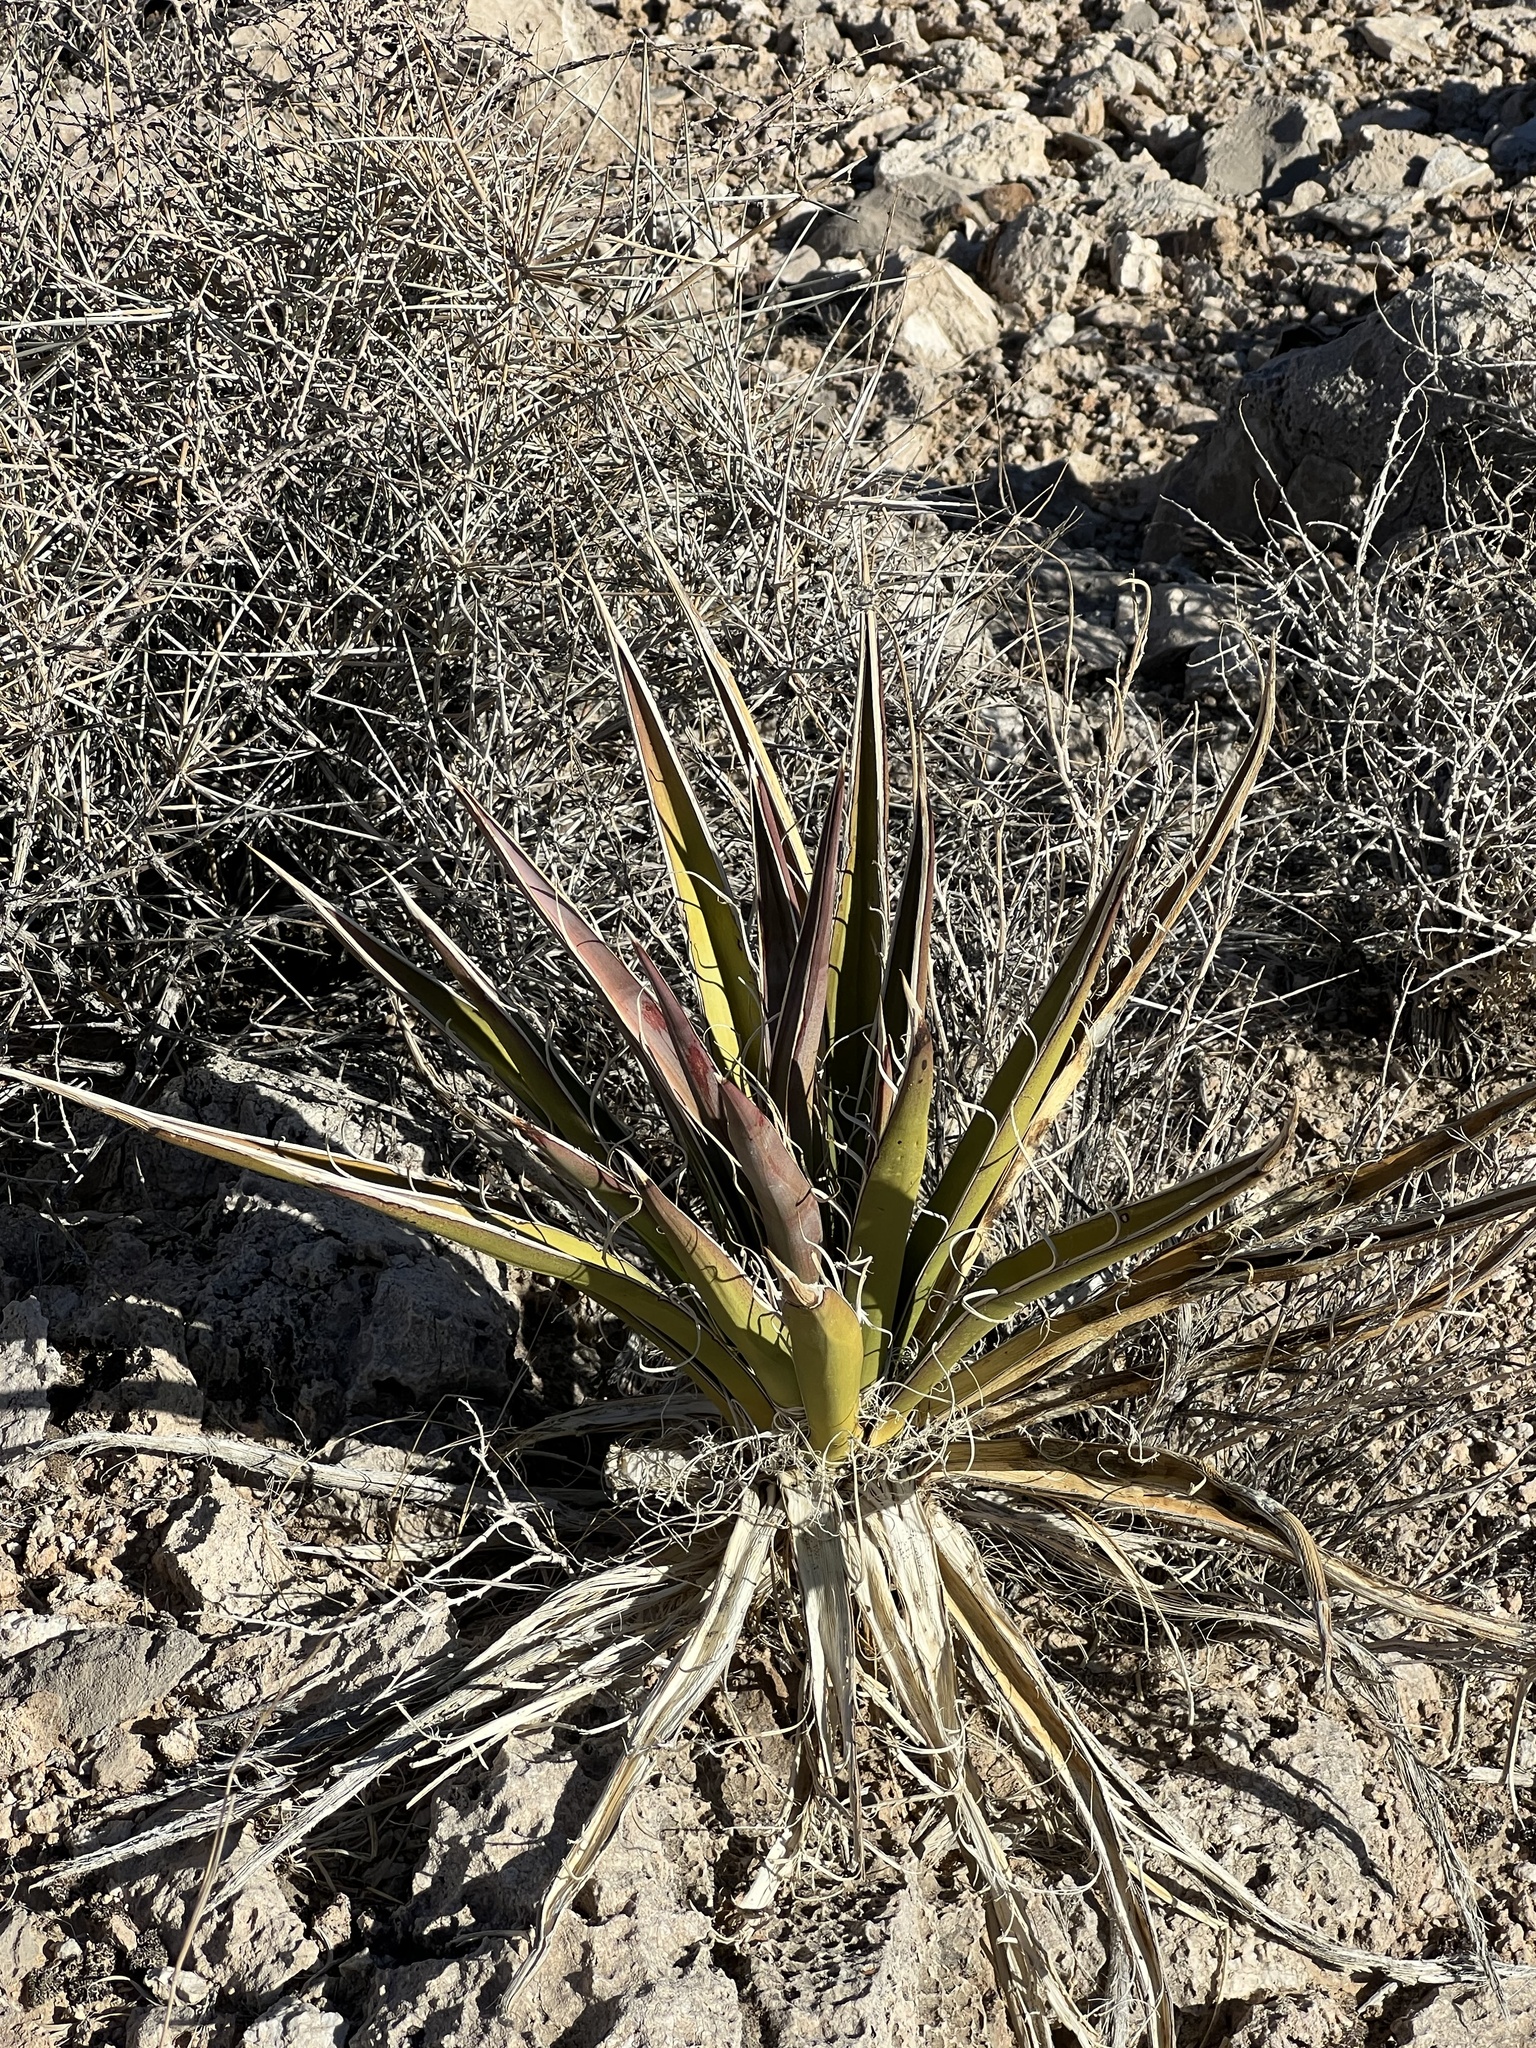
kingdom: Plantae
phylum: Tracheophyta
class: Liliopsida
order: Asparagales
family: Asparagaceae
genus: Yucca
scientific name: Yucca schidigera
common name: Mojave yucca
